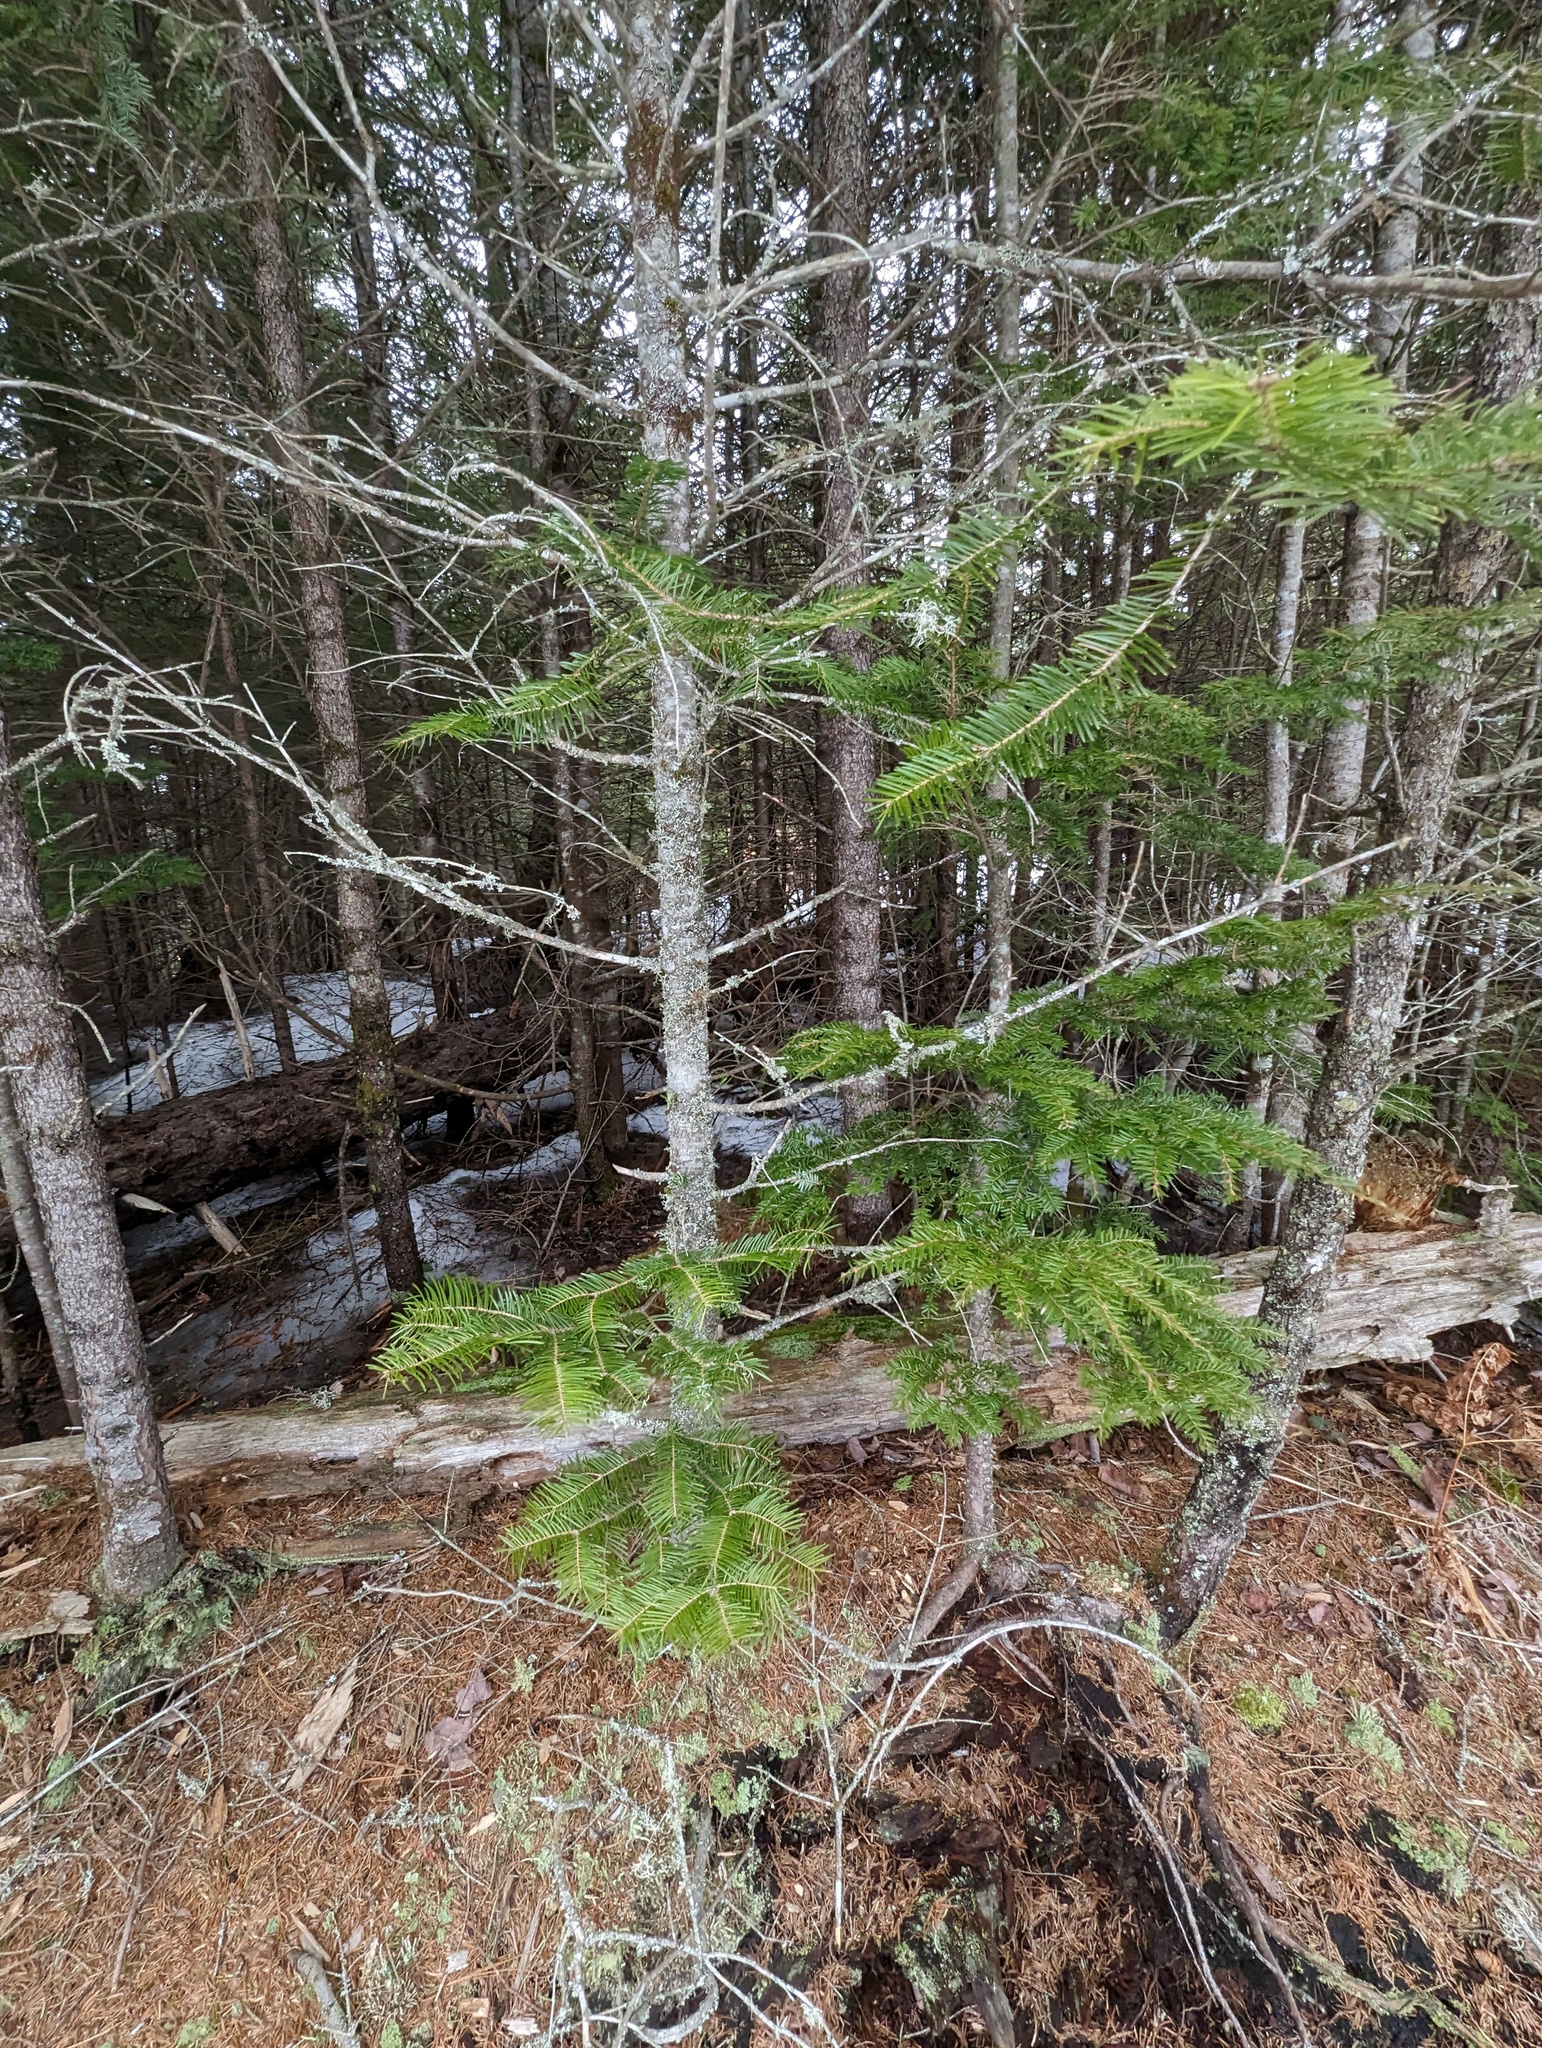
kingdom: Plantae
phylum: Tracheophyta
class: Pinopsida
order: Pinales
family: Pinaceae
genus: Abies
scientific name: Abies balsamea
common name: Balsam fir
